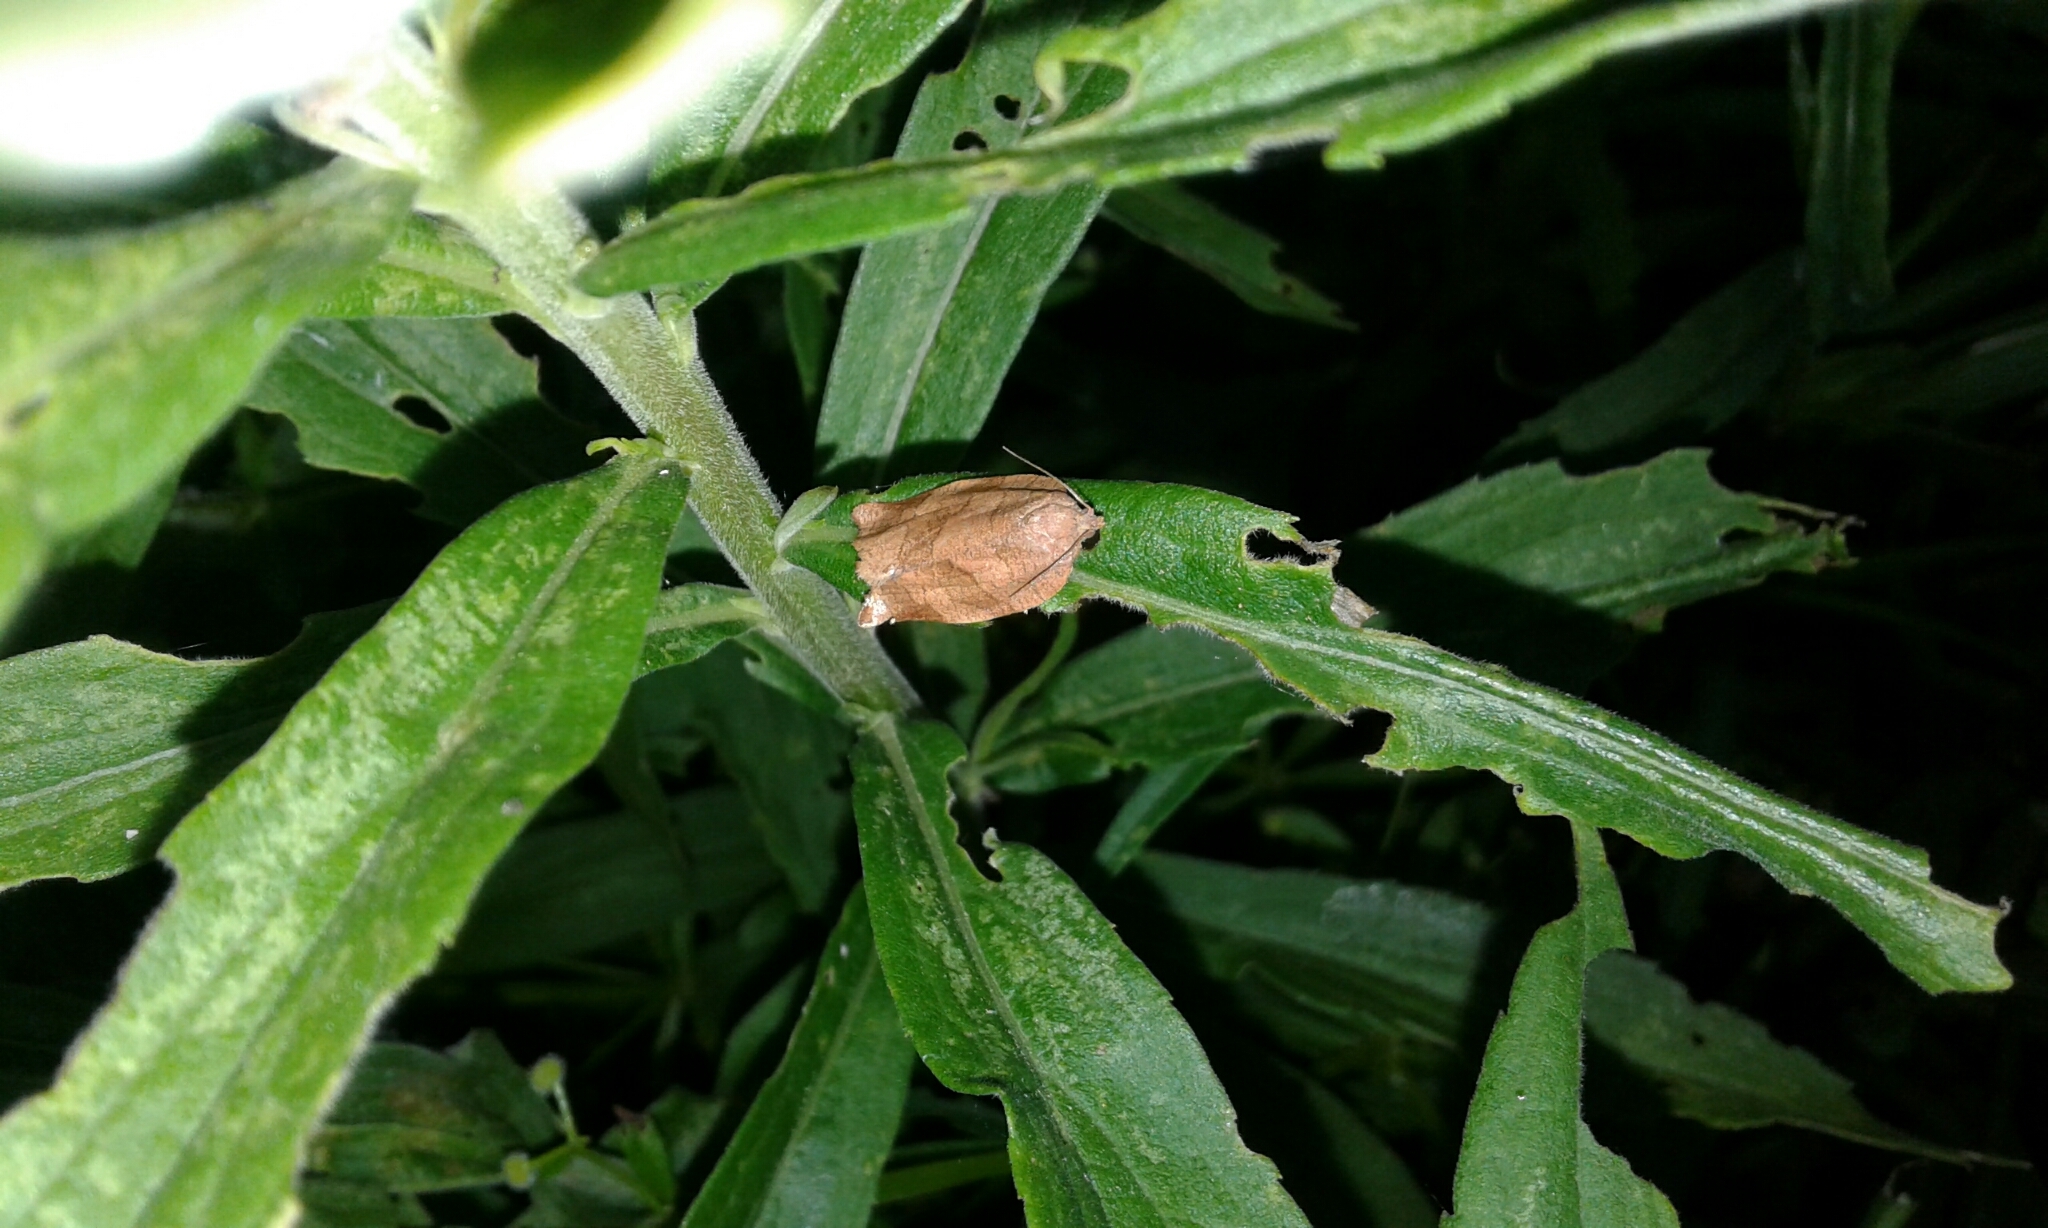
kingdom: Animalia
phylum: Arthropoda
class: Insecta
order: Lepidoptera
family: Tortricidae
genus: Choristoneura
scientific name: Choristoneura rosaceana
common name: Oblique-banded leafroller moth
